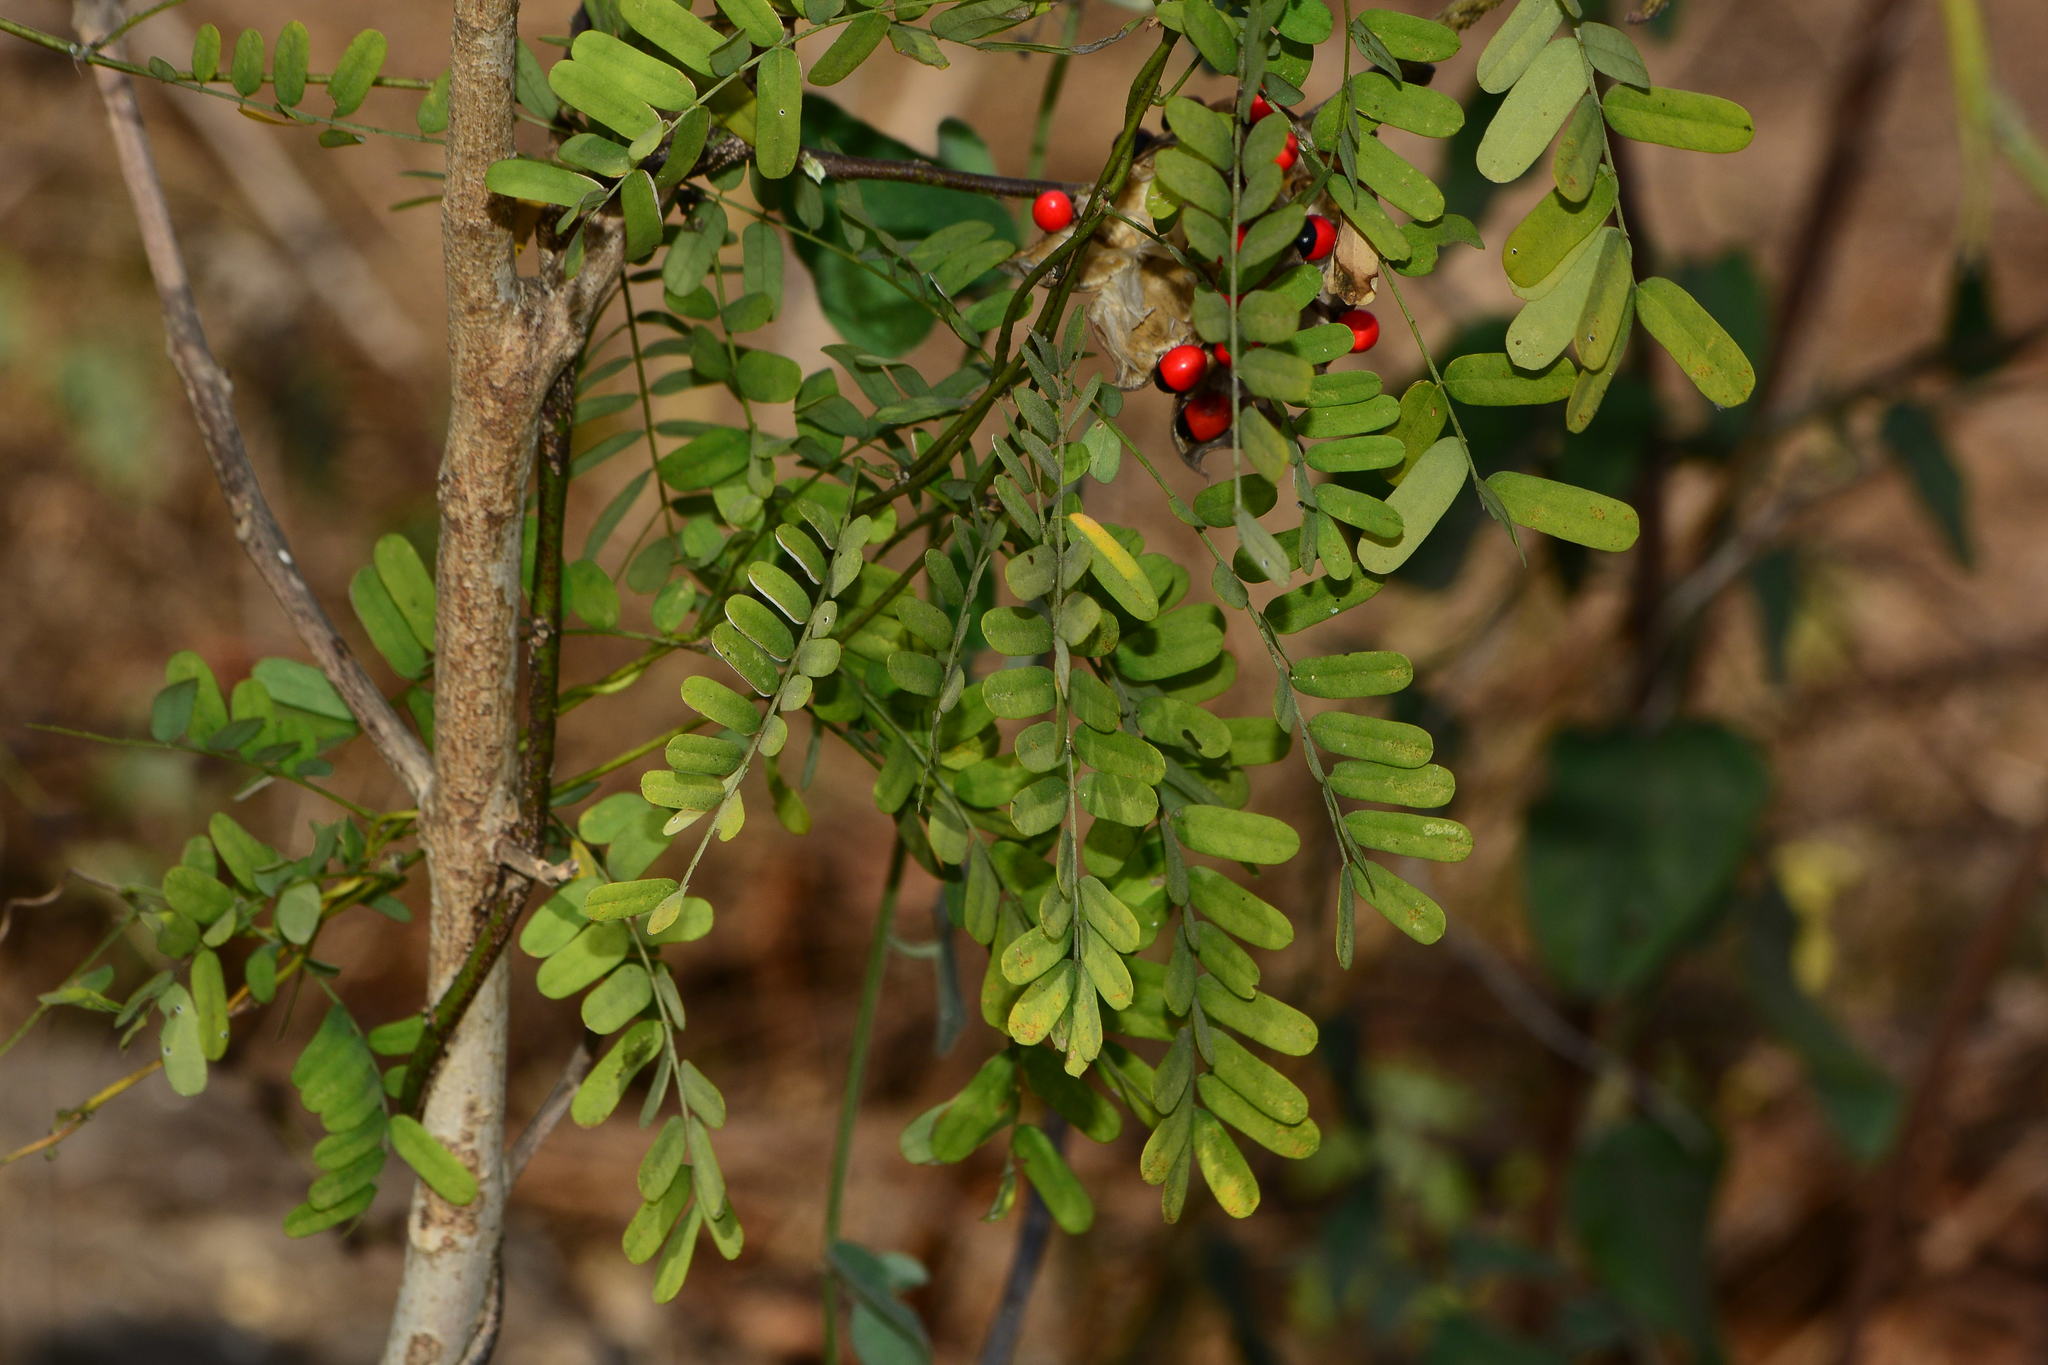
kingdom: Plantae
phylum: Tracheophyta
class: Magnoliopsida
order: Fabales
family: Fabaceae
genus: Abrus
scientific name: Abrus precatorius
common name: Rosarypea
